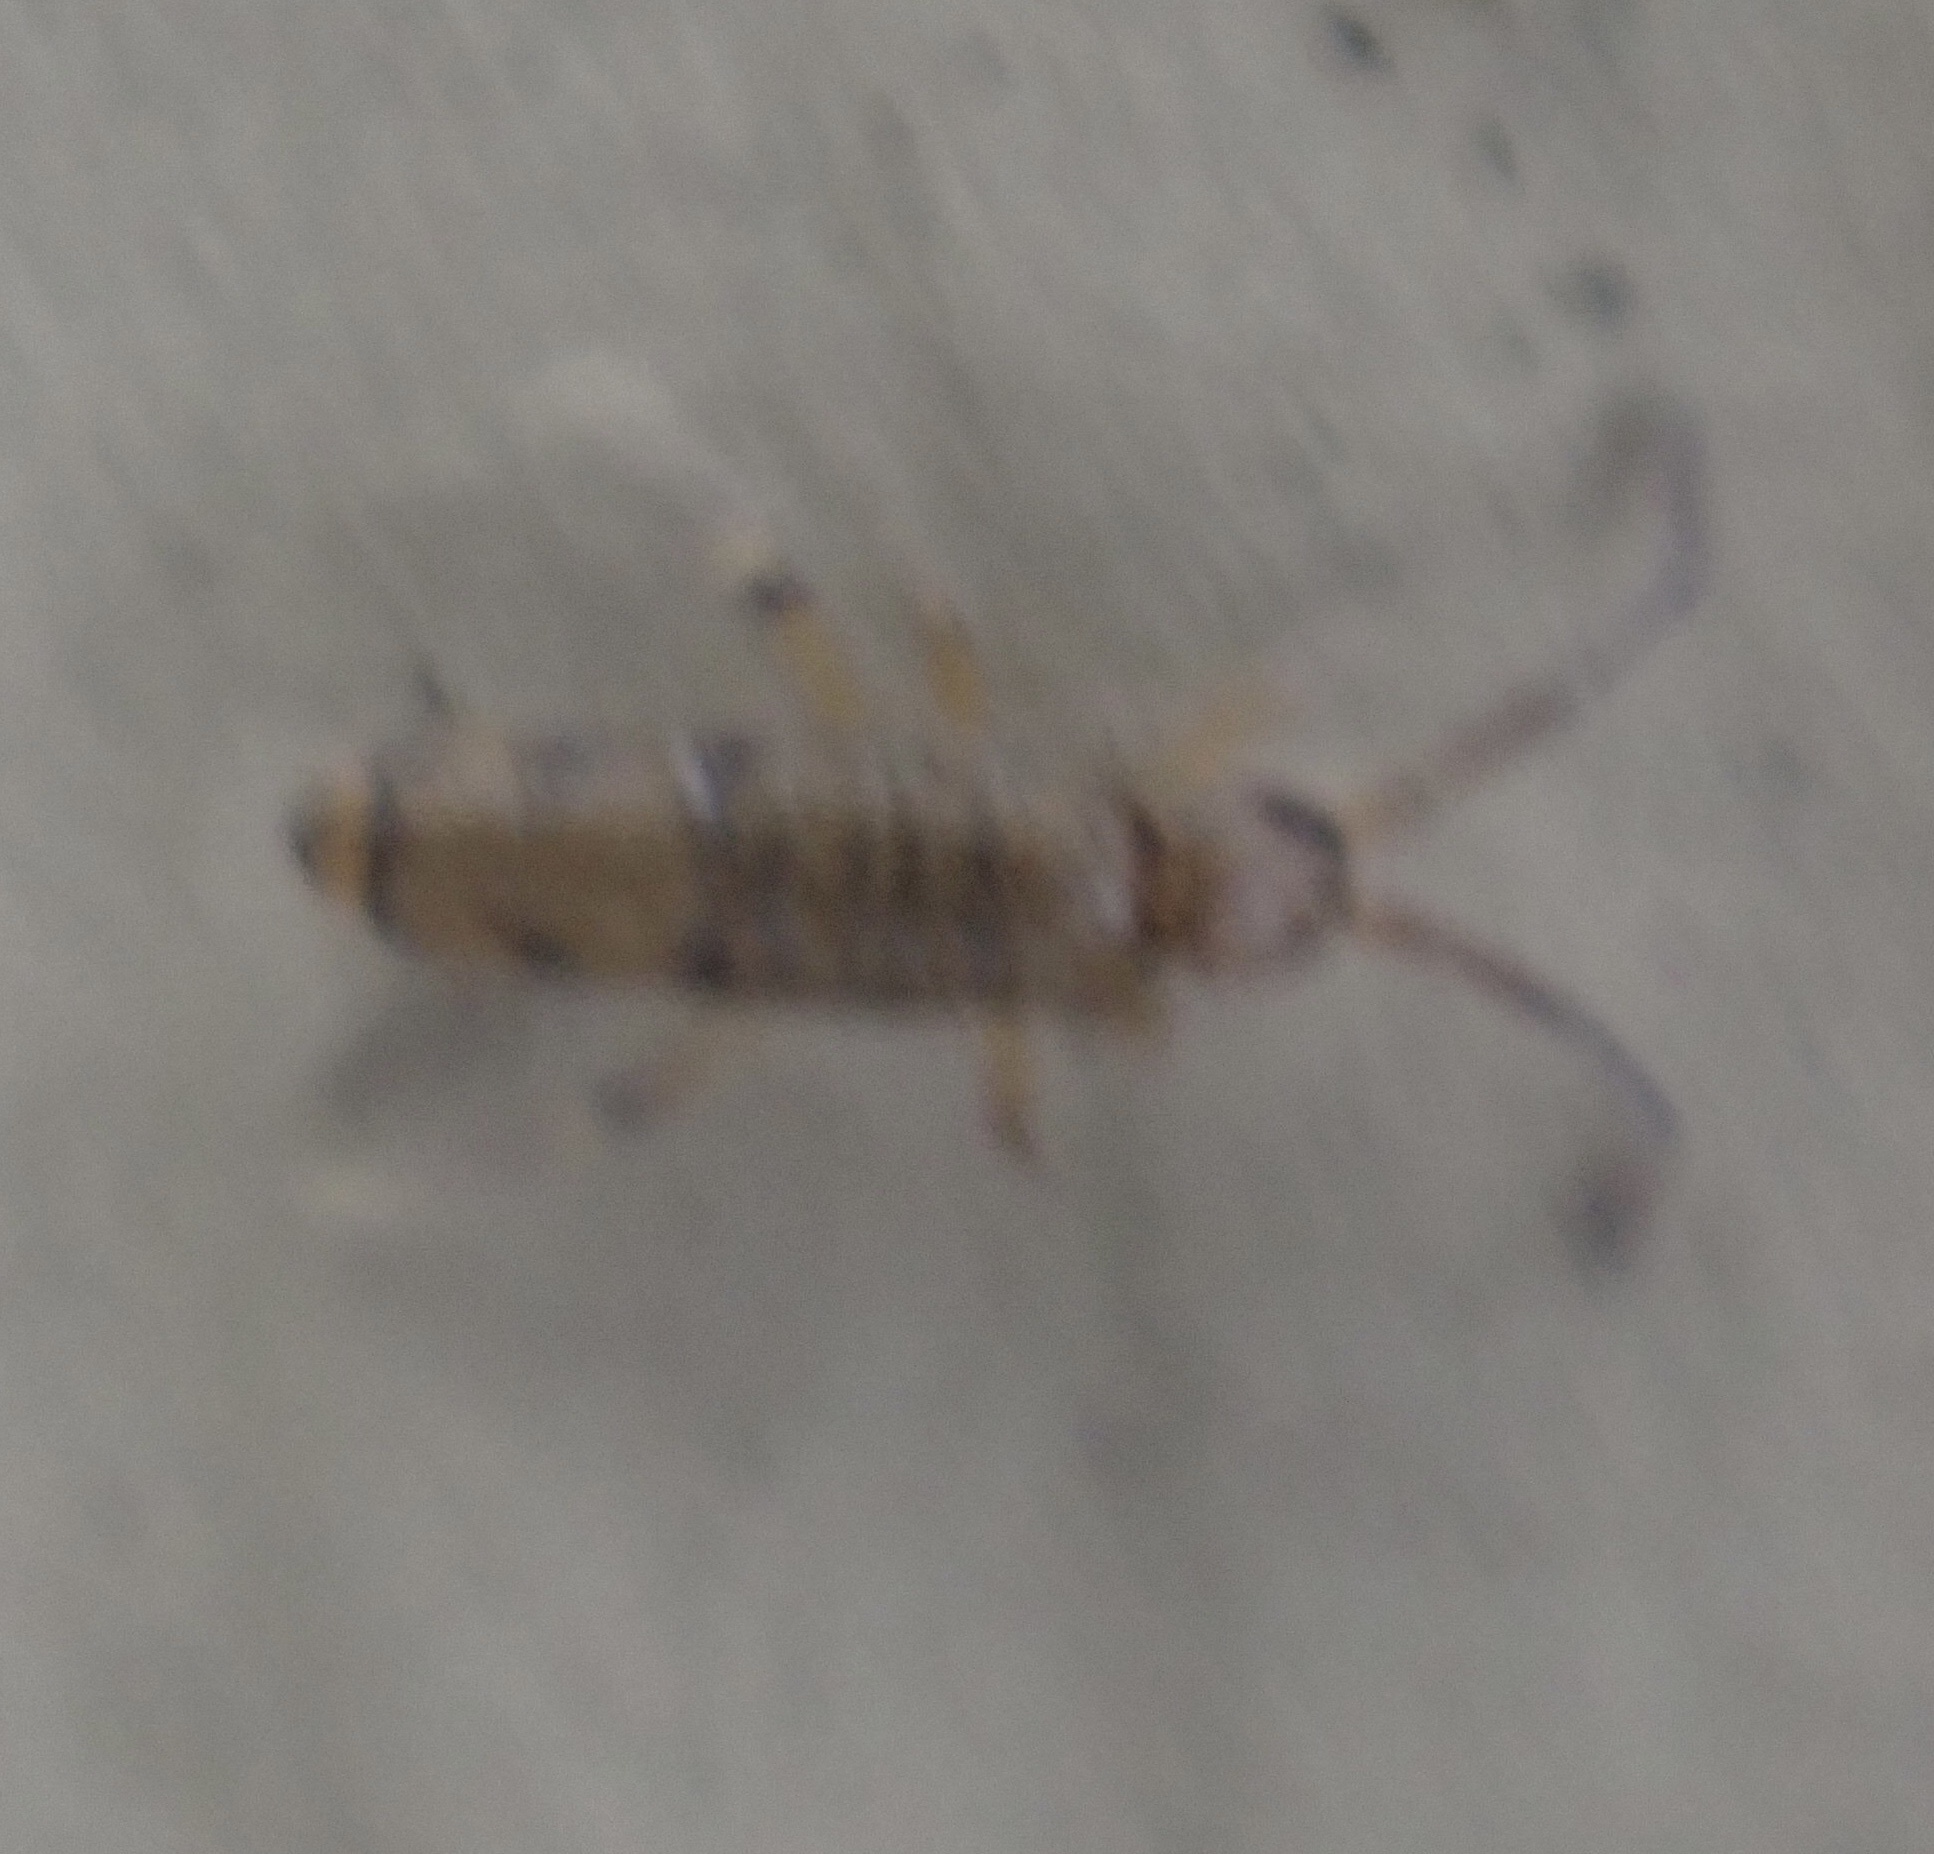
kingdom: Animalia
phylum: Arthropoda
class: Collembola
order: Entomobryomorpha
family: Entomobryidae
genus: Willowsia
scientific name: Willowsia nigromaculata
